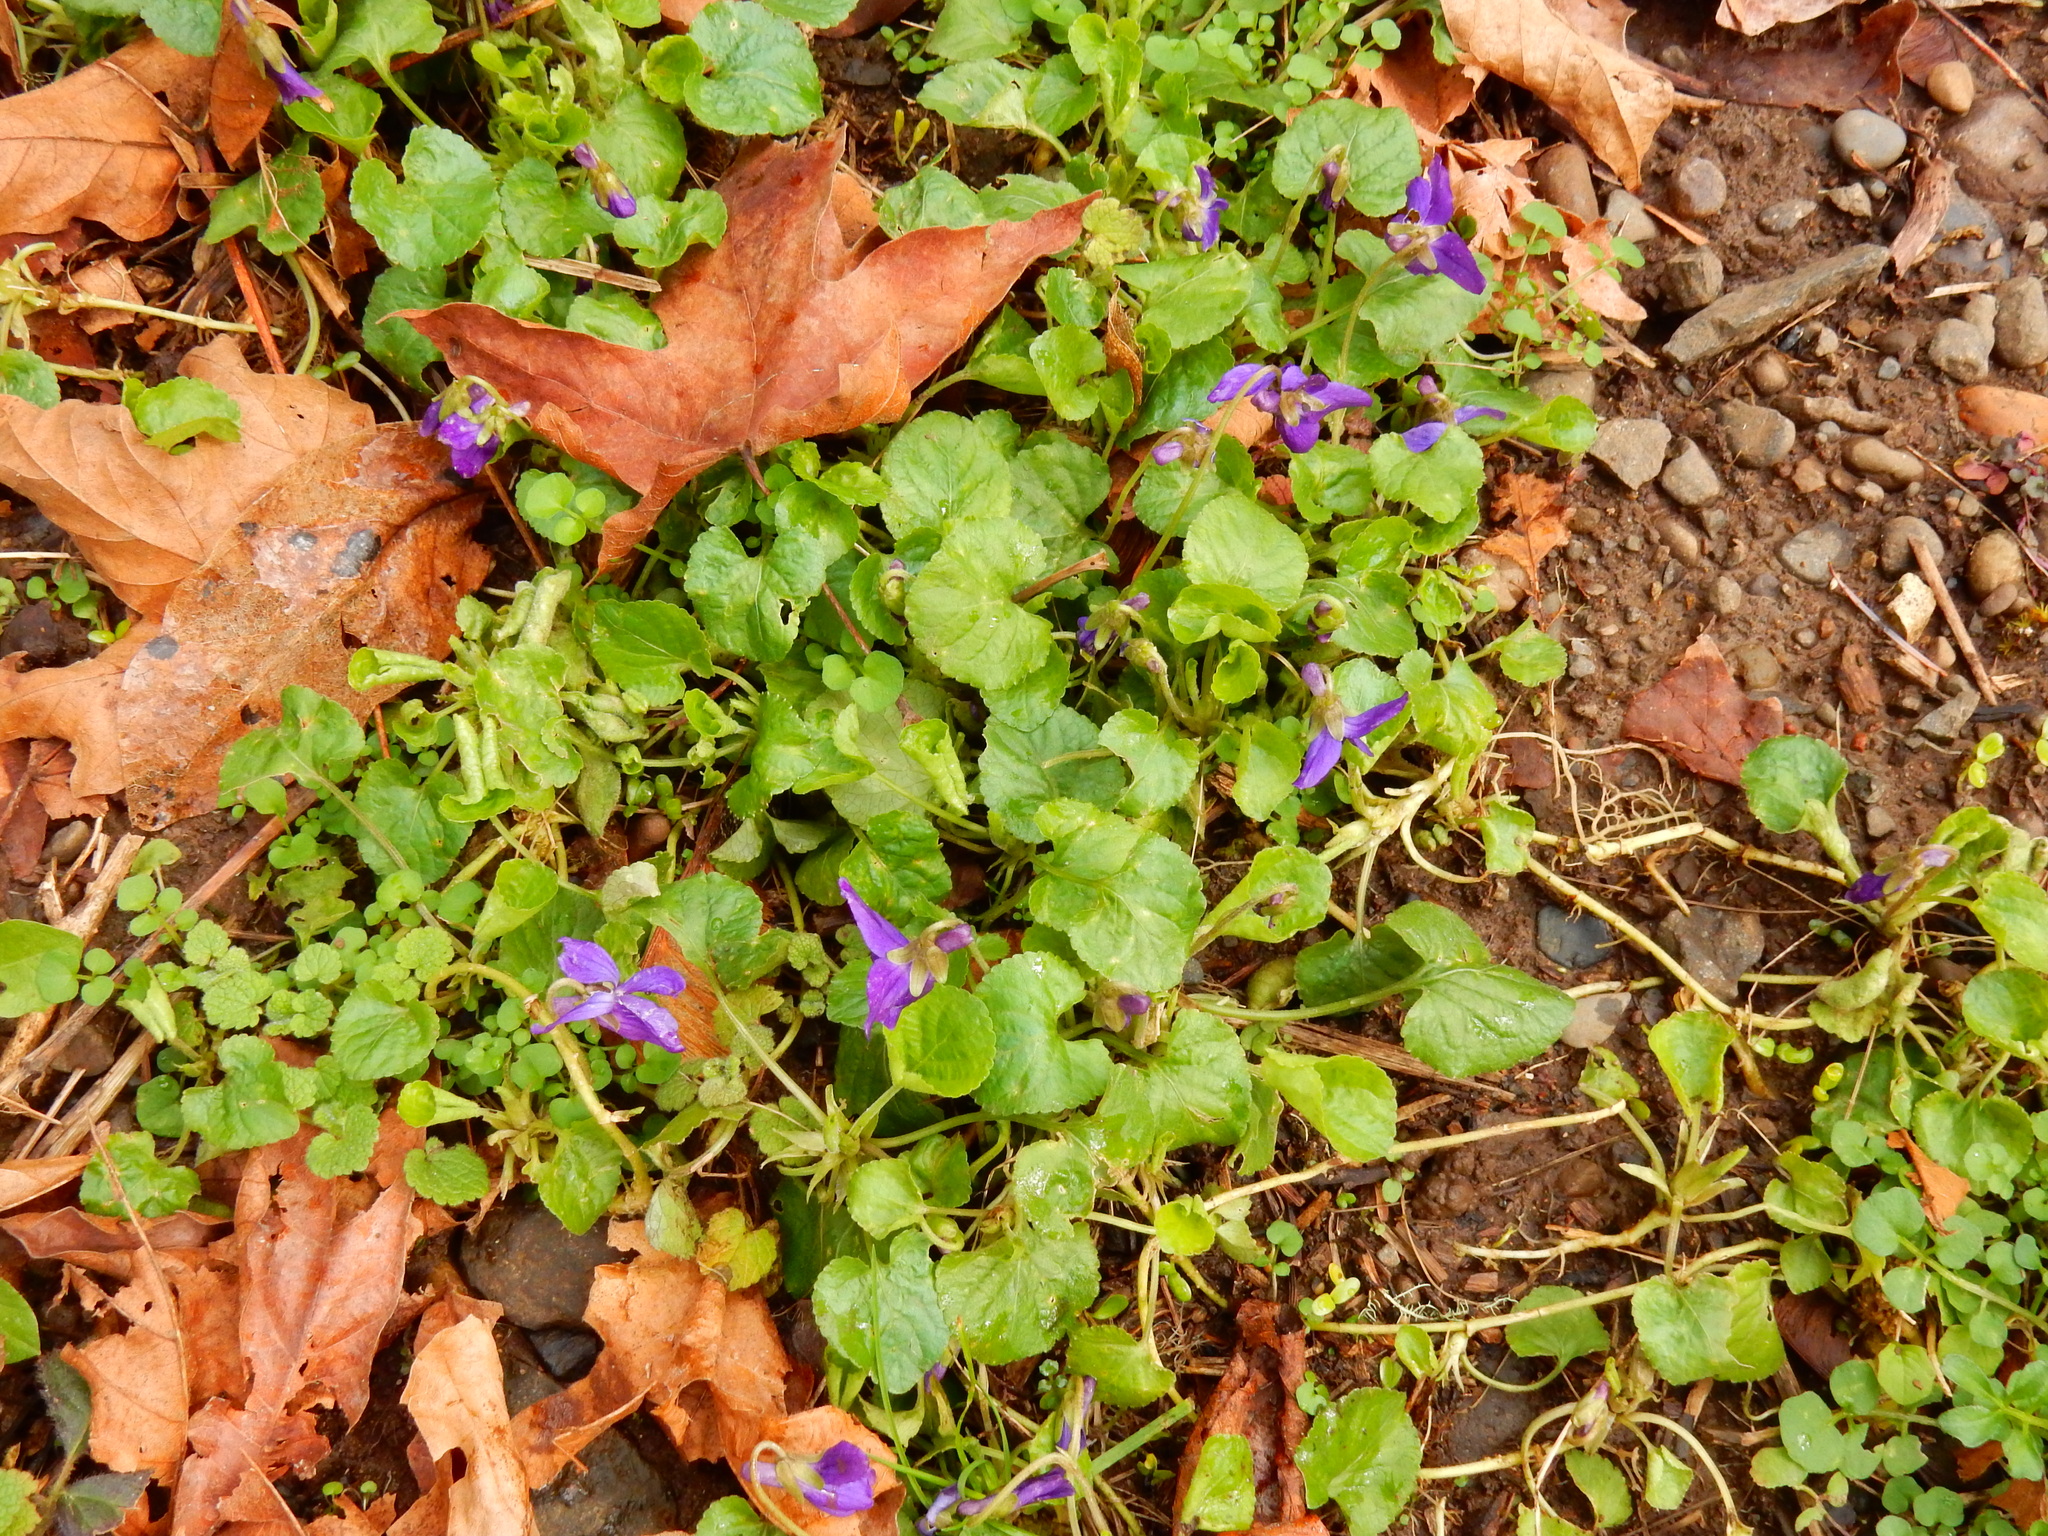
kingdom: Plantae
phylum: Tracheophyta
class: Magnoliopsida
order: Malpighiales
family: Violaceae
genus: Viola
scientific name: Viola odorata
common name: Sweet violet
